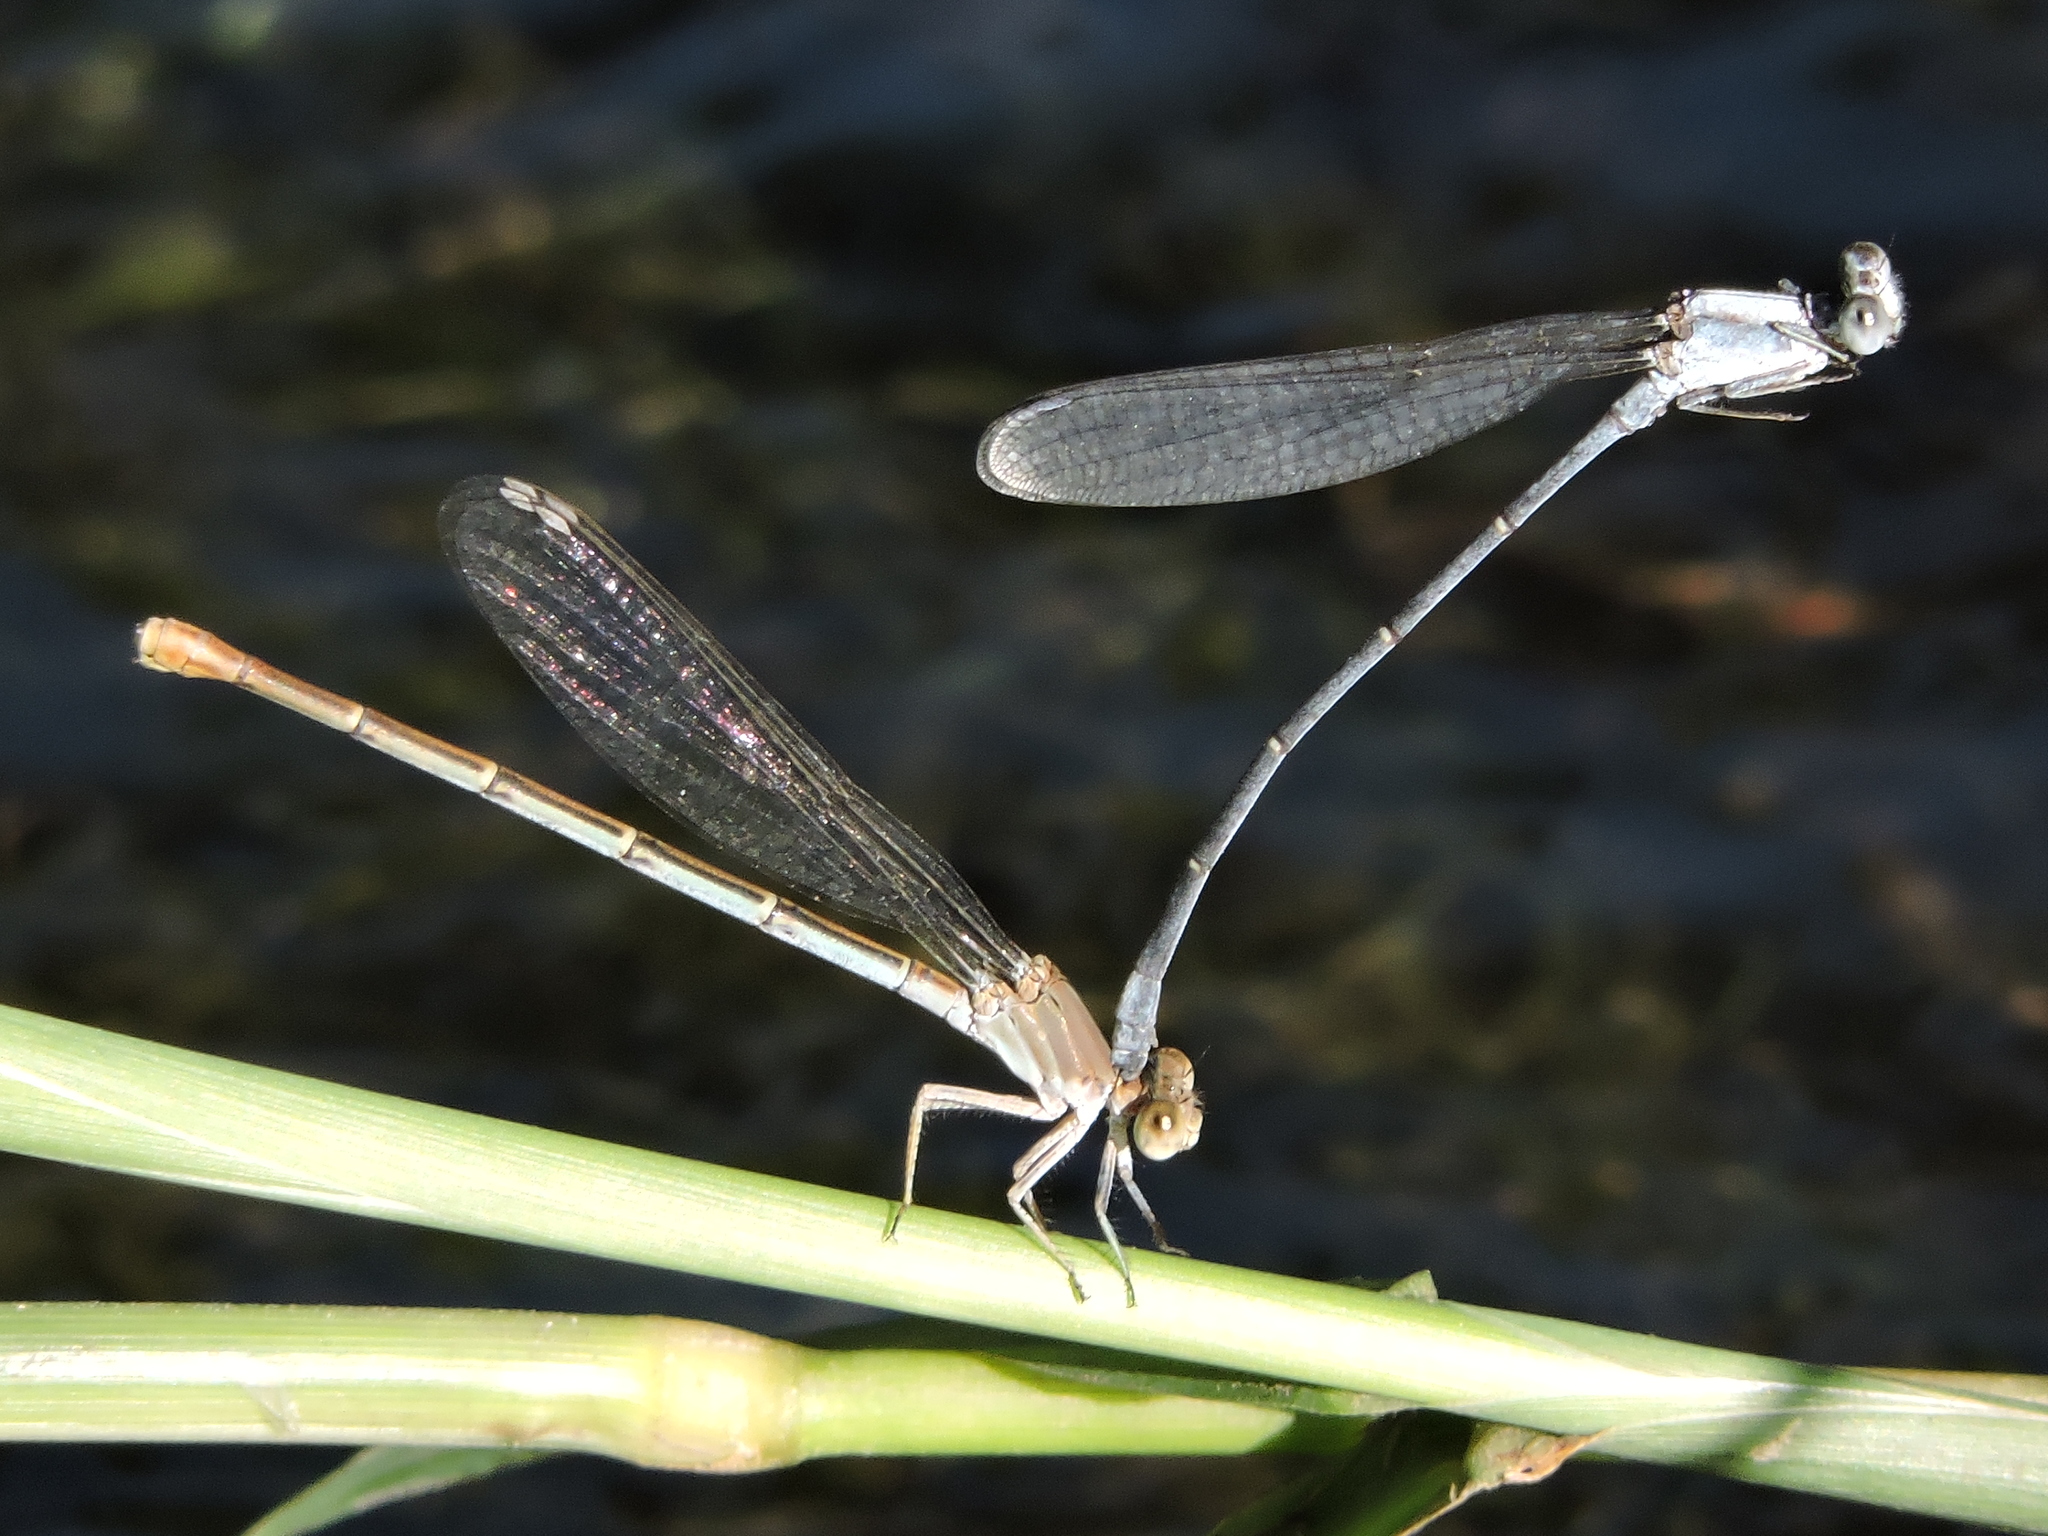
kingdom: Animalia
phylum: Arthropoda
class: Insecta
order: Odonata
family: Coenagrionidae
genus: Argia
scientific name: Argia moesta
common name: Powdered dancer
